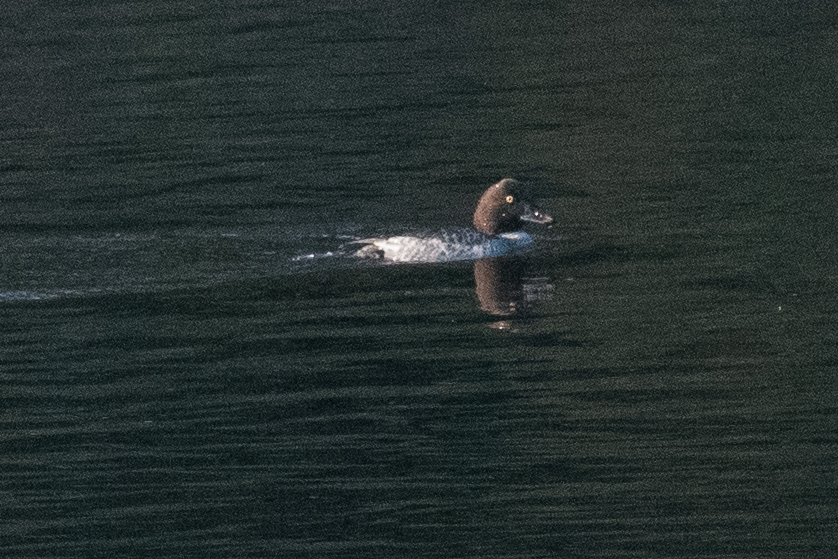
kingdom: Animalia
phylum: Chordata
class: Aves
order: Anseriformes
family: Anatidae
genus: Bucephala
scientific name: Bucephala clangula
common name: Common goldeneye
